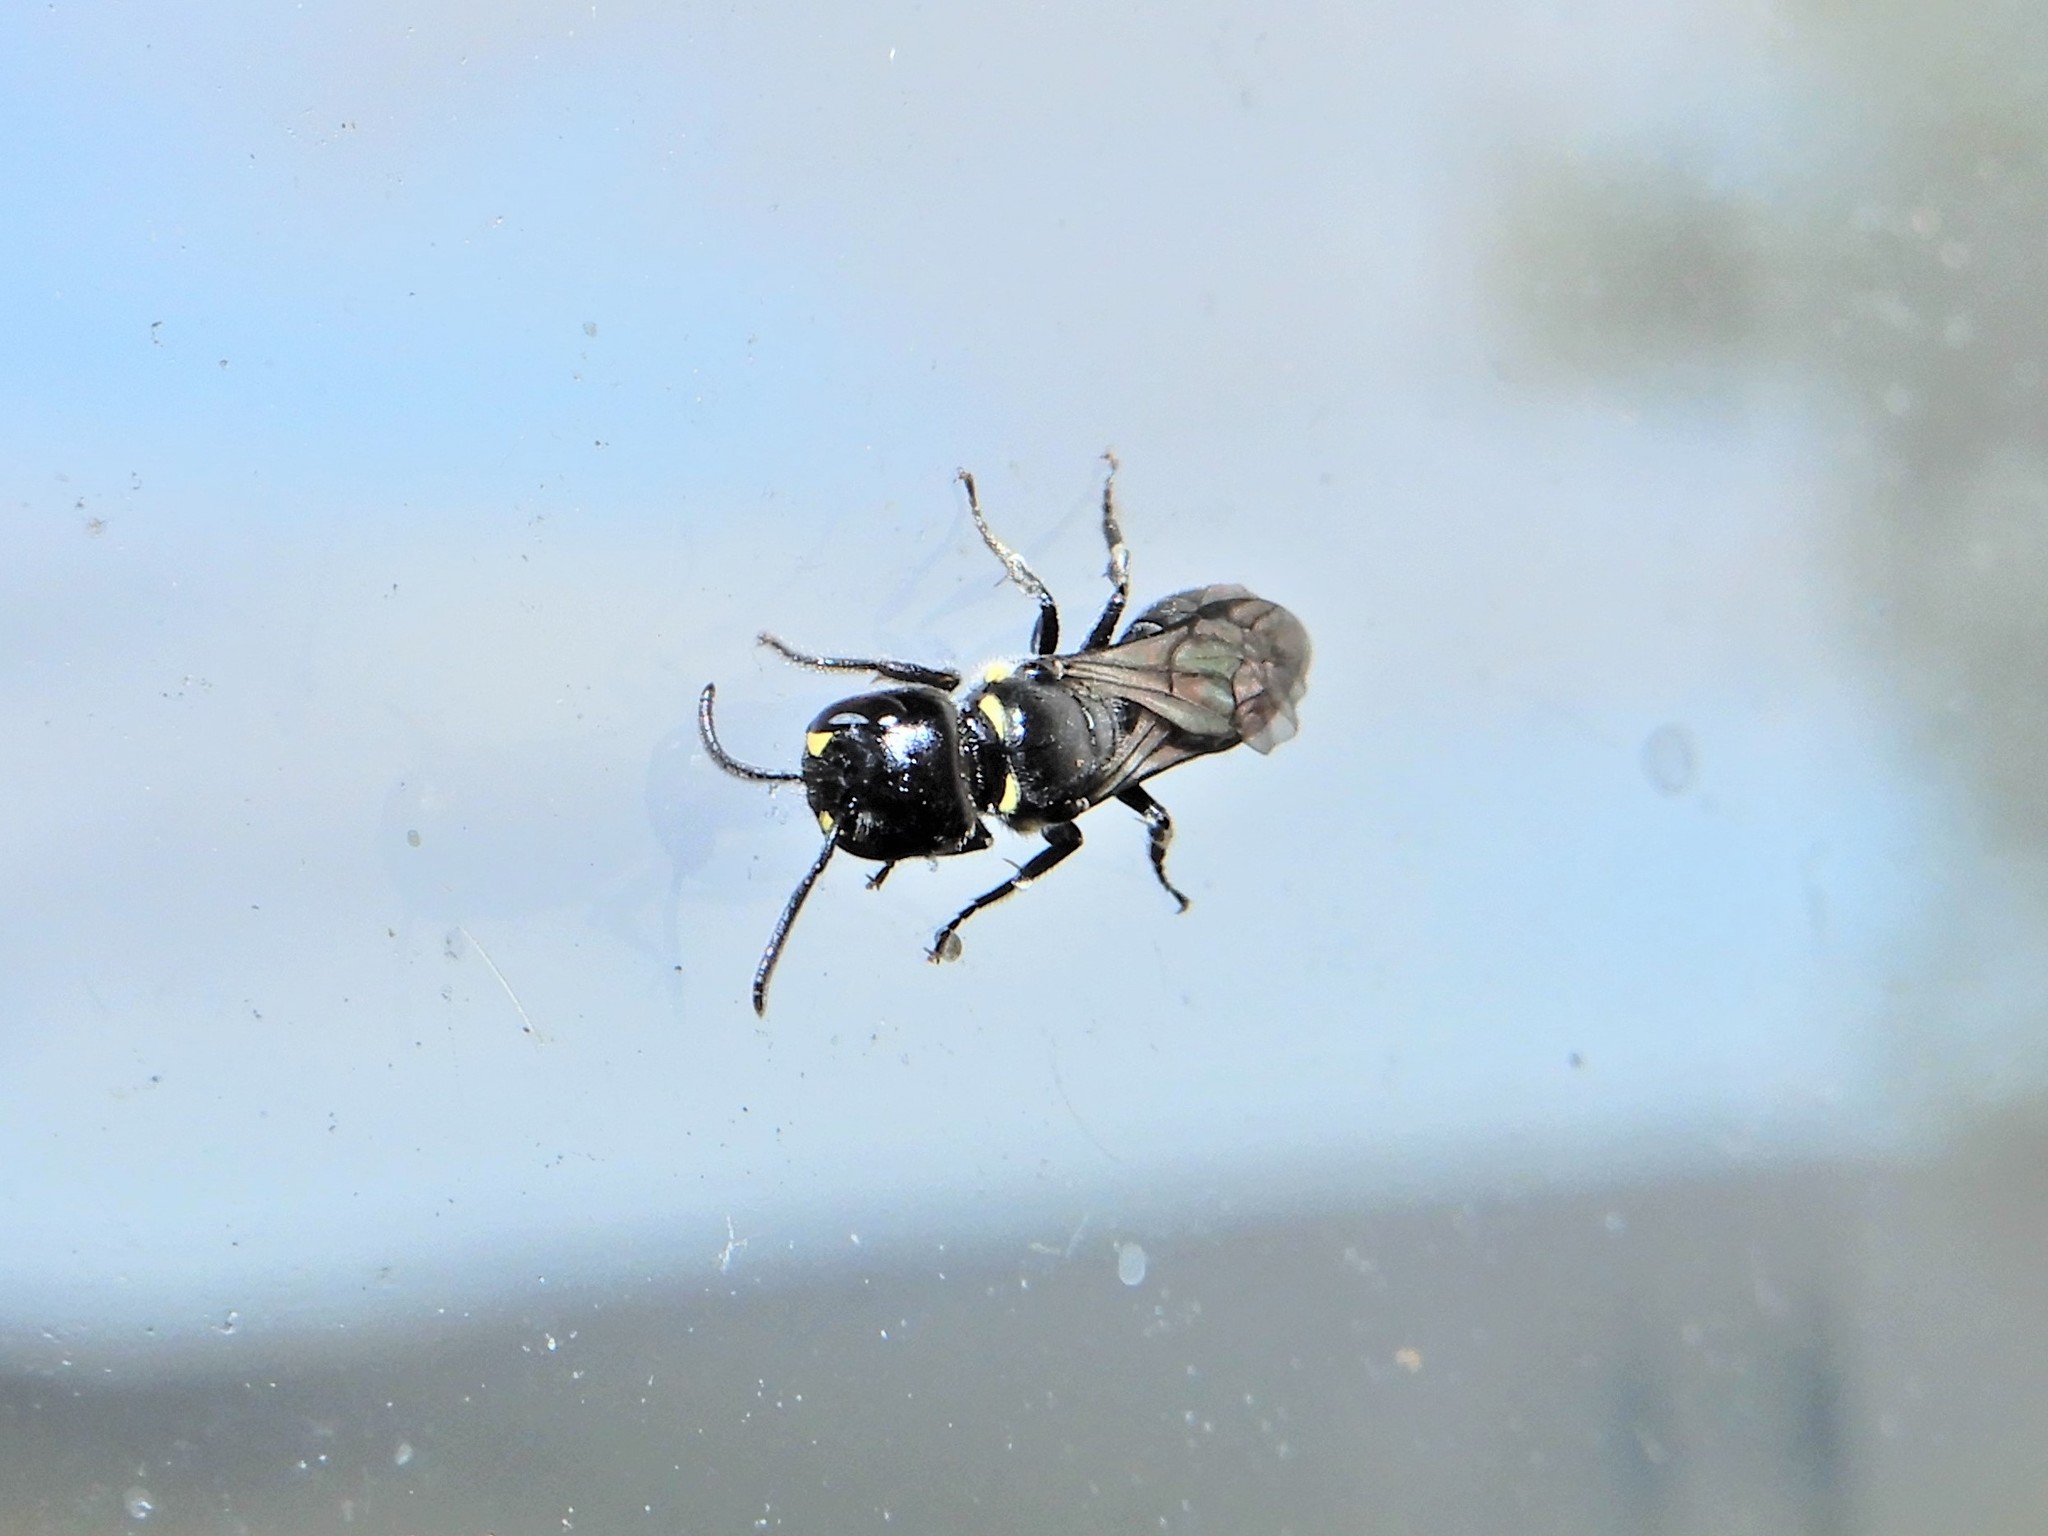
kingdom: Animalia
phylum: Arthropoda
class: Insecta
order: Hymenoptera
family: Colletidae
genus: Hylaeus
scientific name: Hylaeus relegatus
